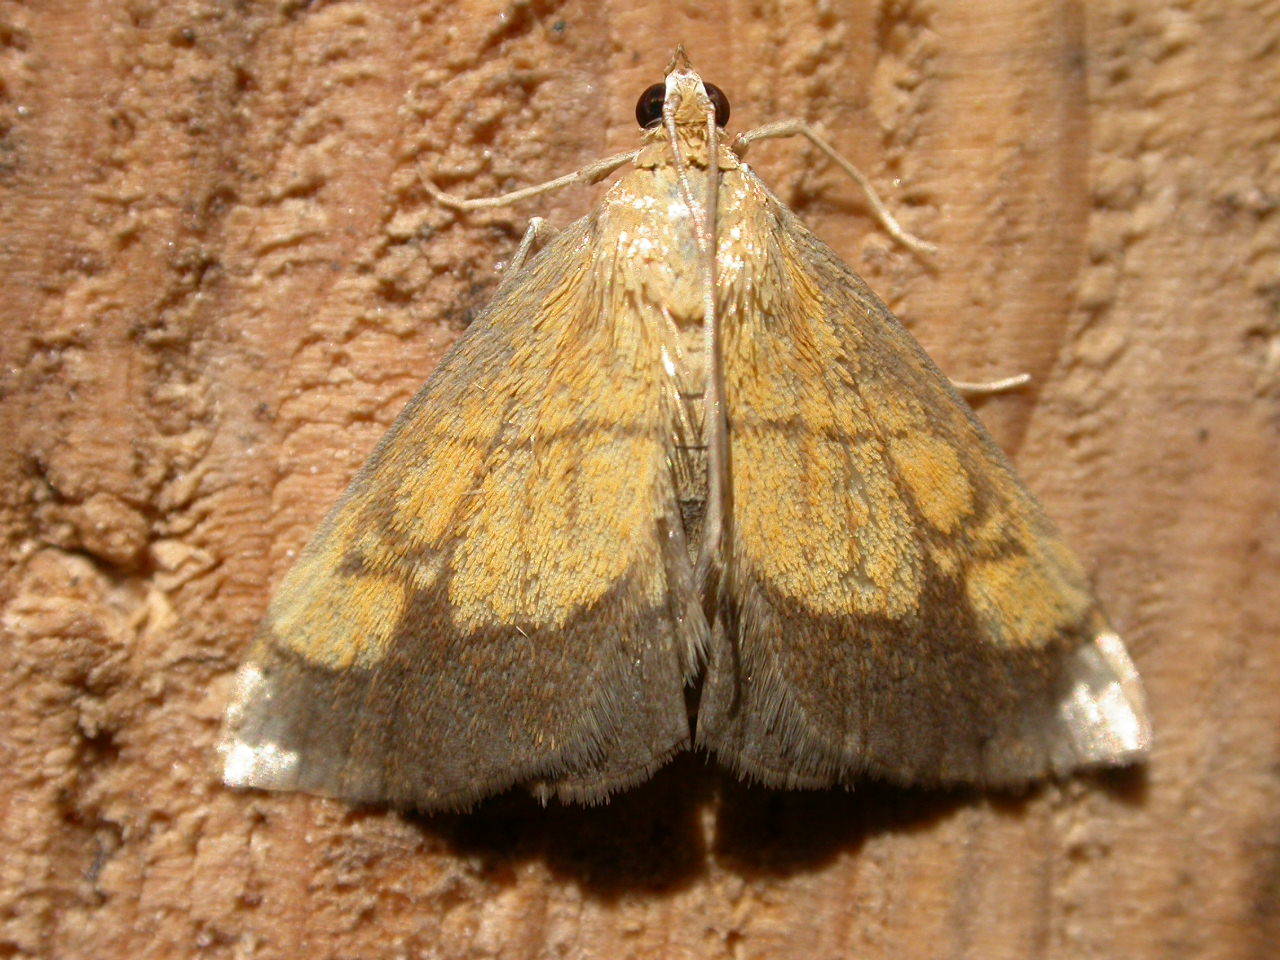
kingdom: Animalia
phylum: Arthropoda
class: Insecta
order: Lepidoptera
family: Crambidae
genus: Evergestis
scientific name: Evergestis limbata
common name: Dark bordered pearl
